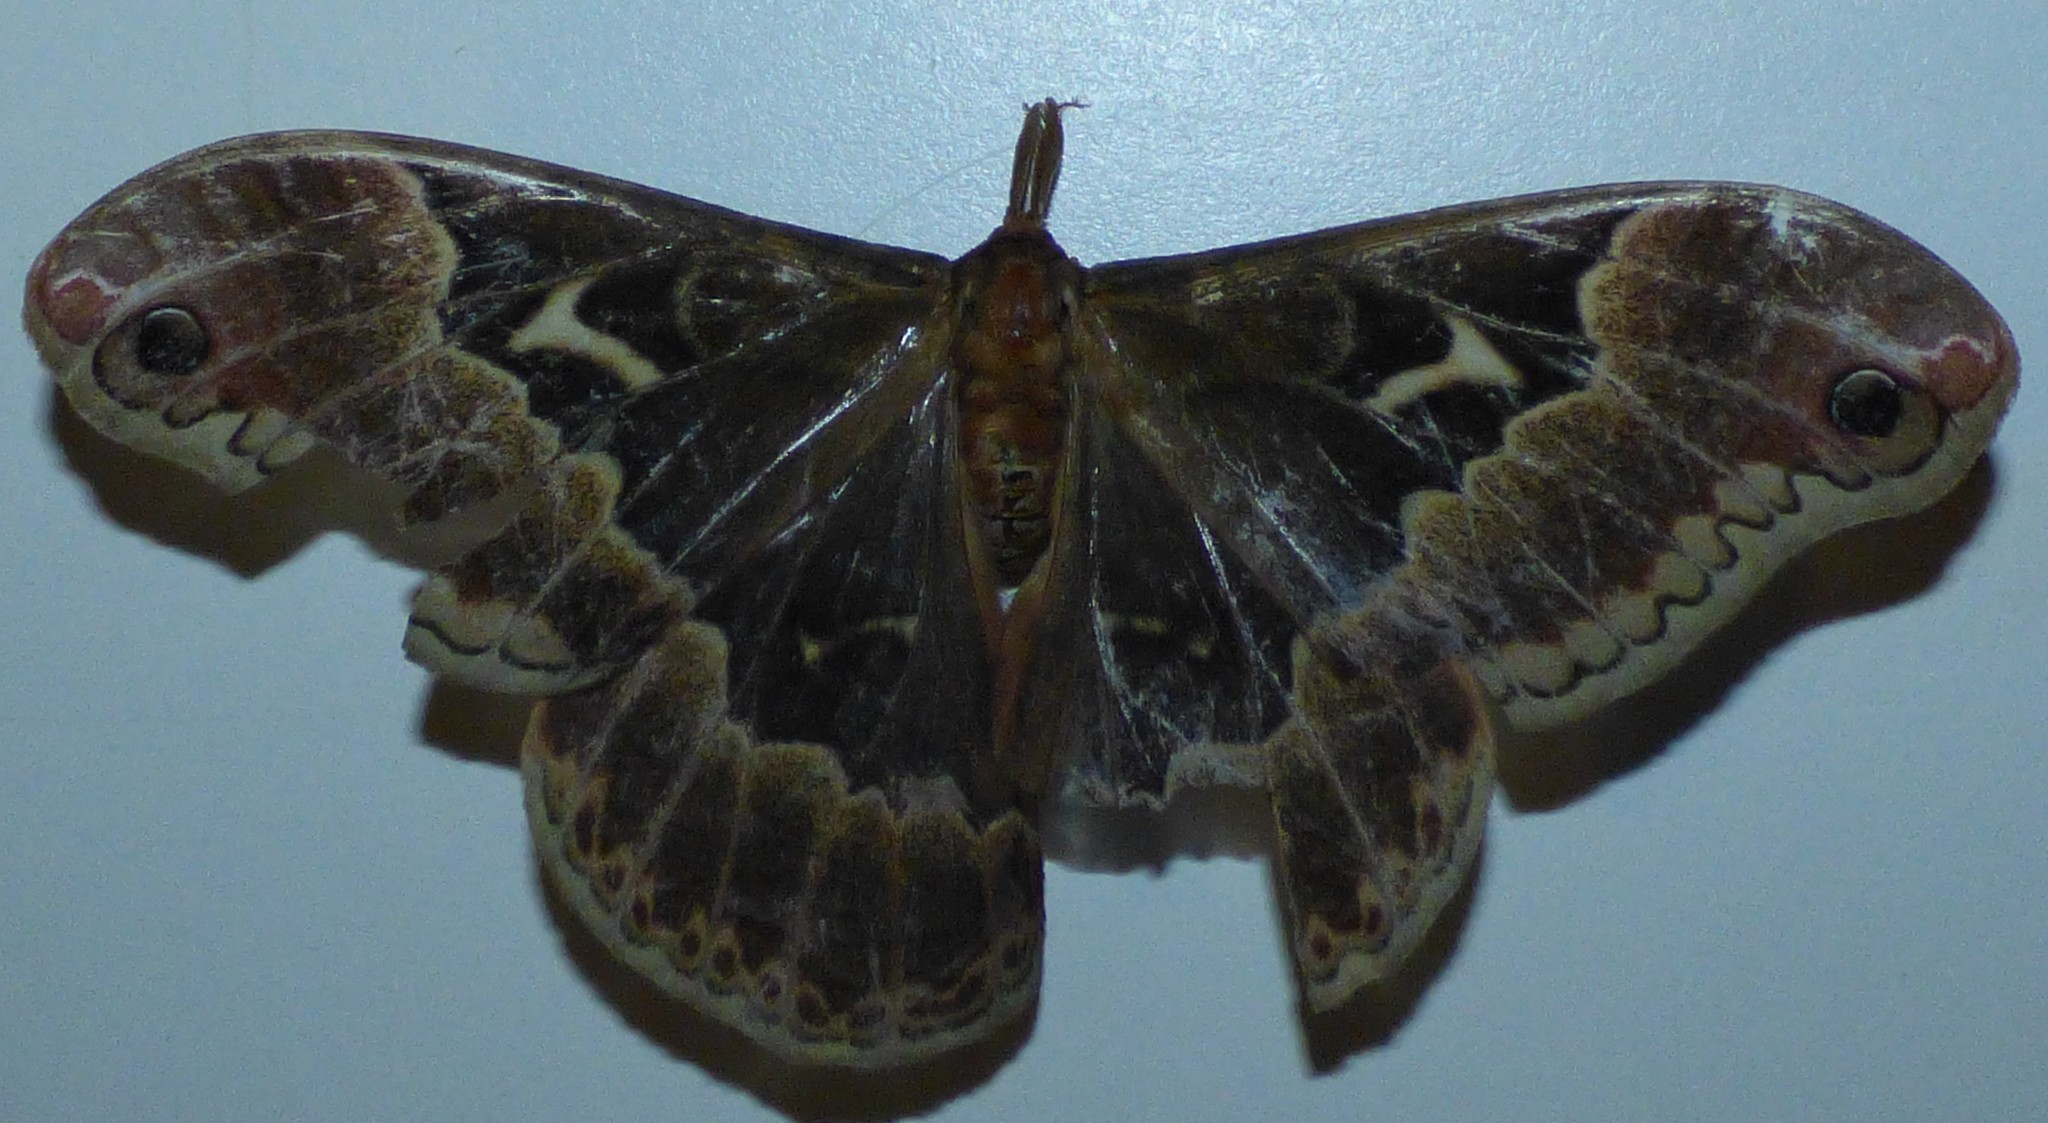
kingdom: Animalia
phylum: Arthropoda
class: Insecta
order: Lepidoptera
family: Saturniidae
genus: Callosamia
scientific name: Callosamia angulifera
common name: Tulip tree silkmoth
